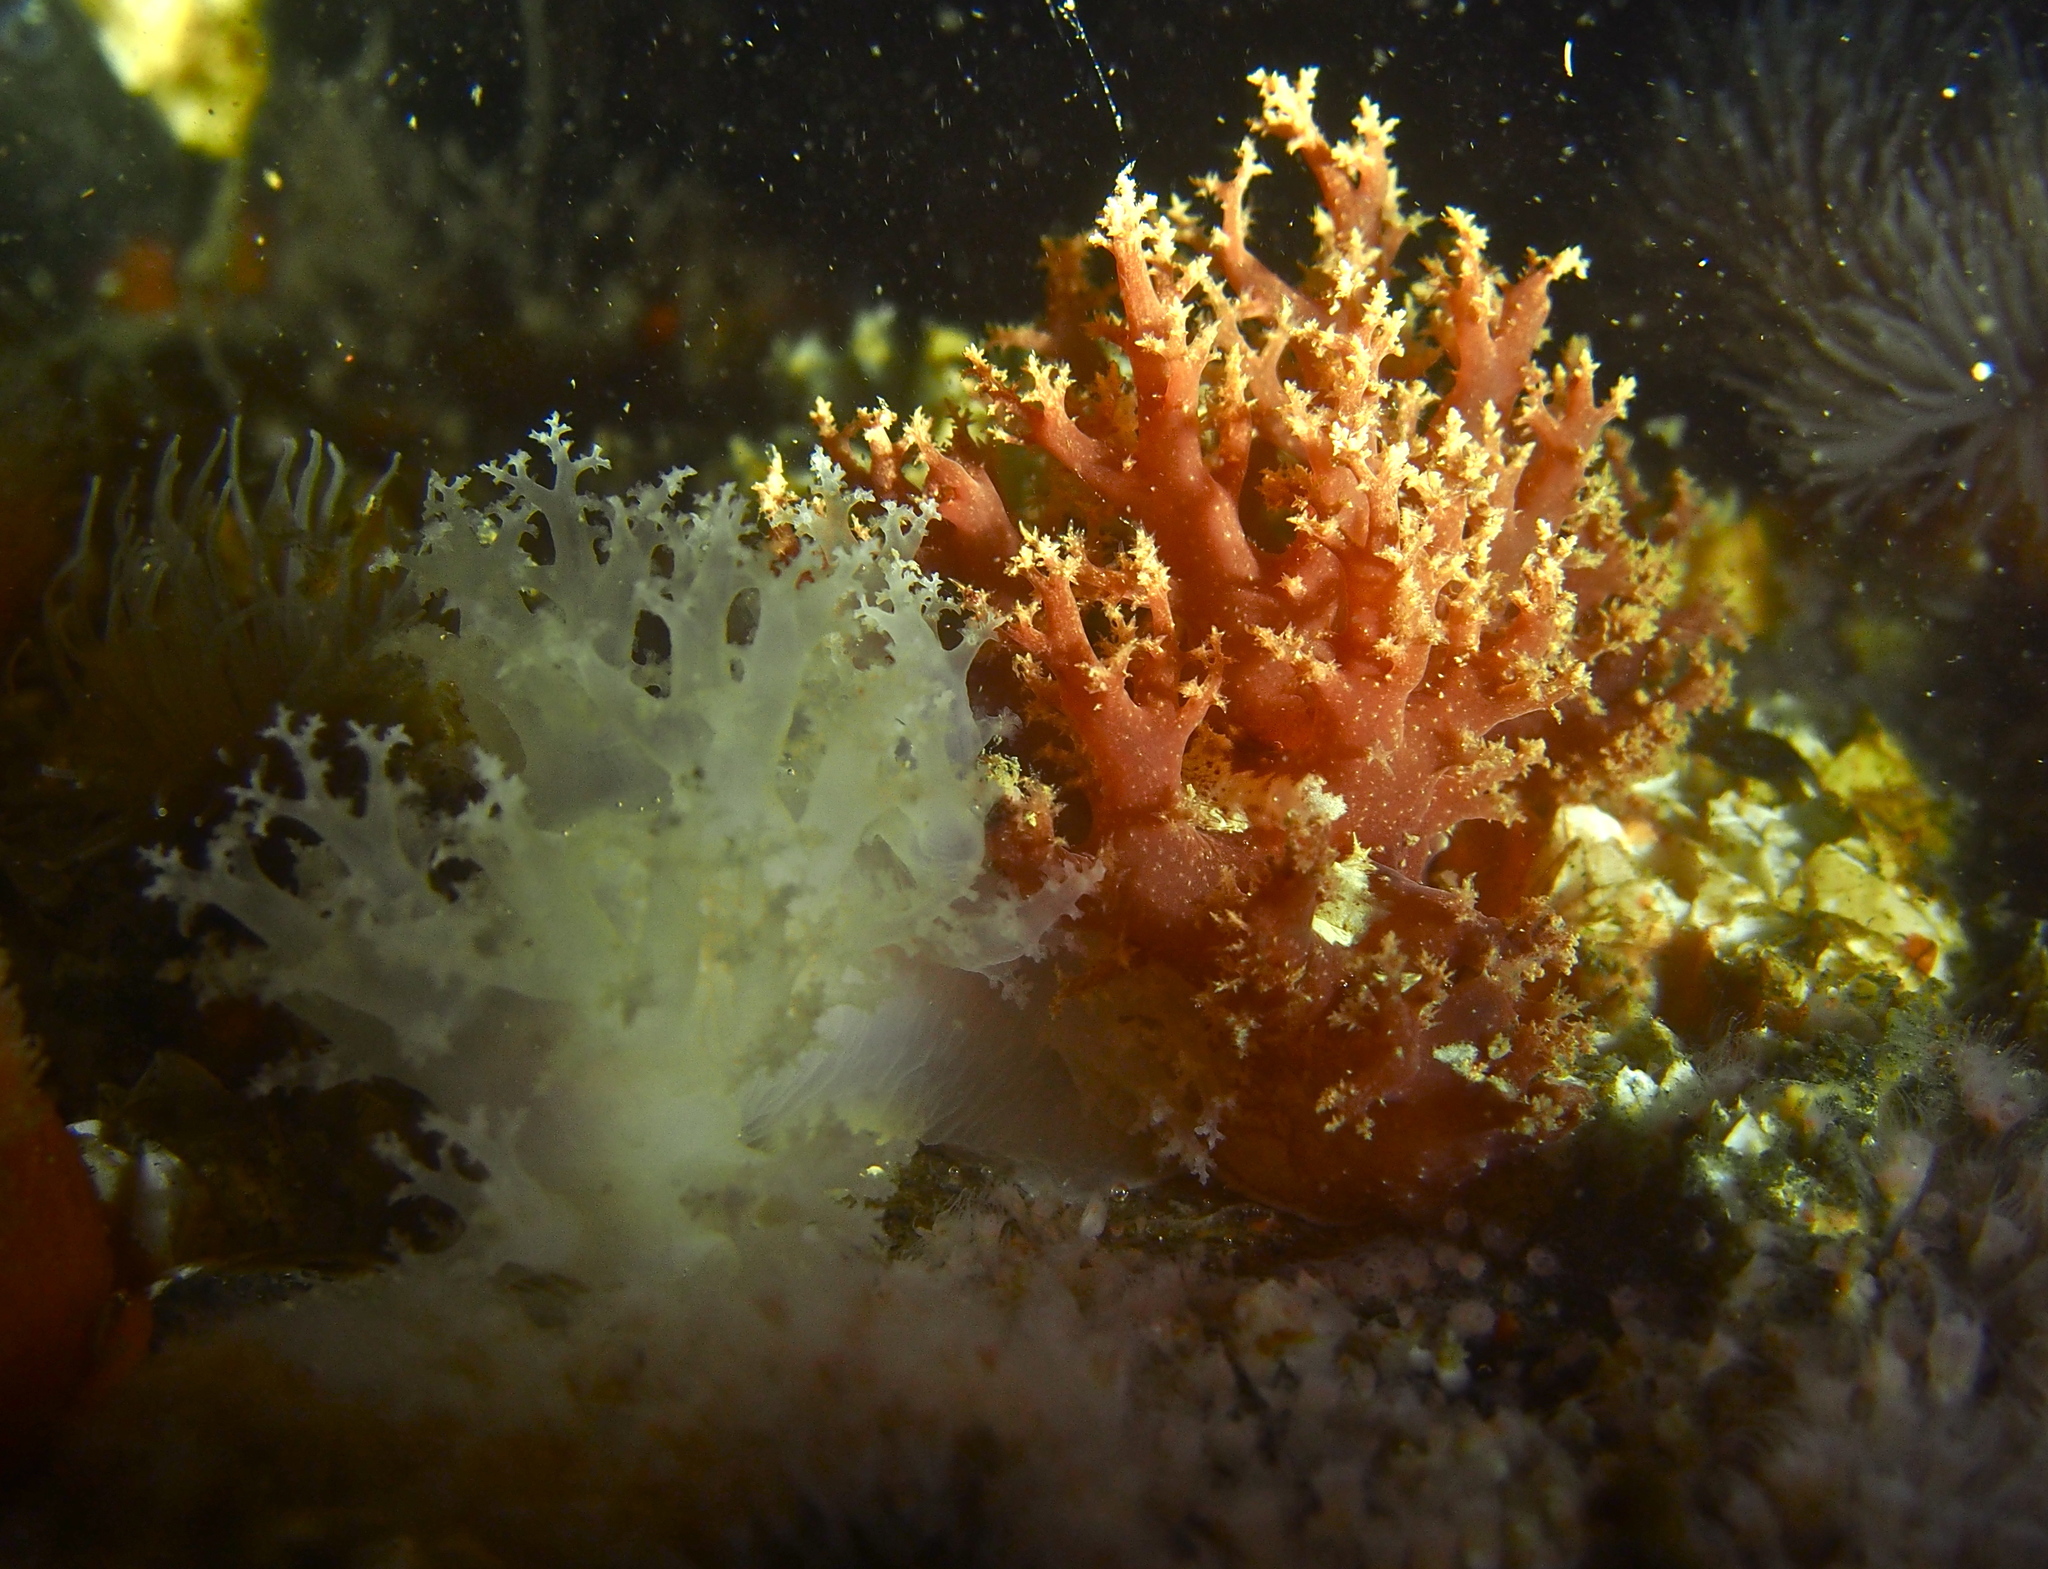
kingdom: Animalia
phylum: Mollusca
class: Gastropoda
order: Nudibranchia
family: Dendronotidae
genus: Dendronotus
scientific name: Dendronotus lacteus
